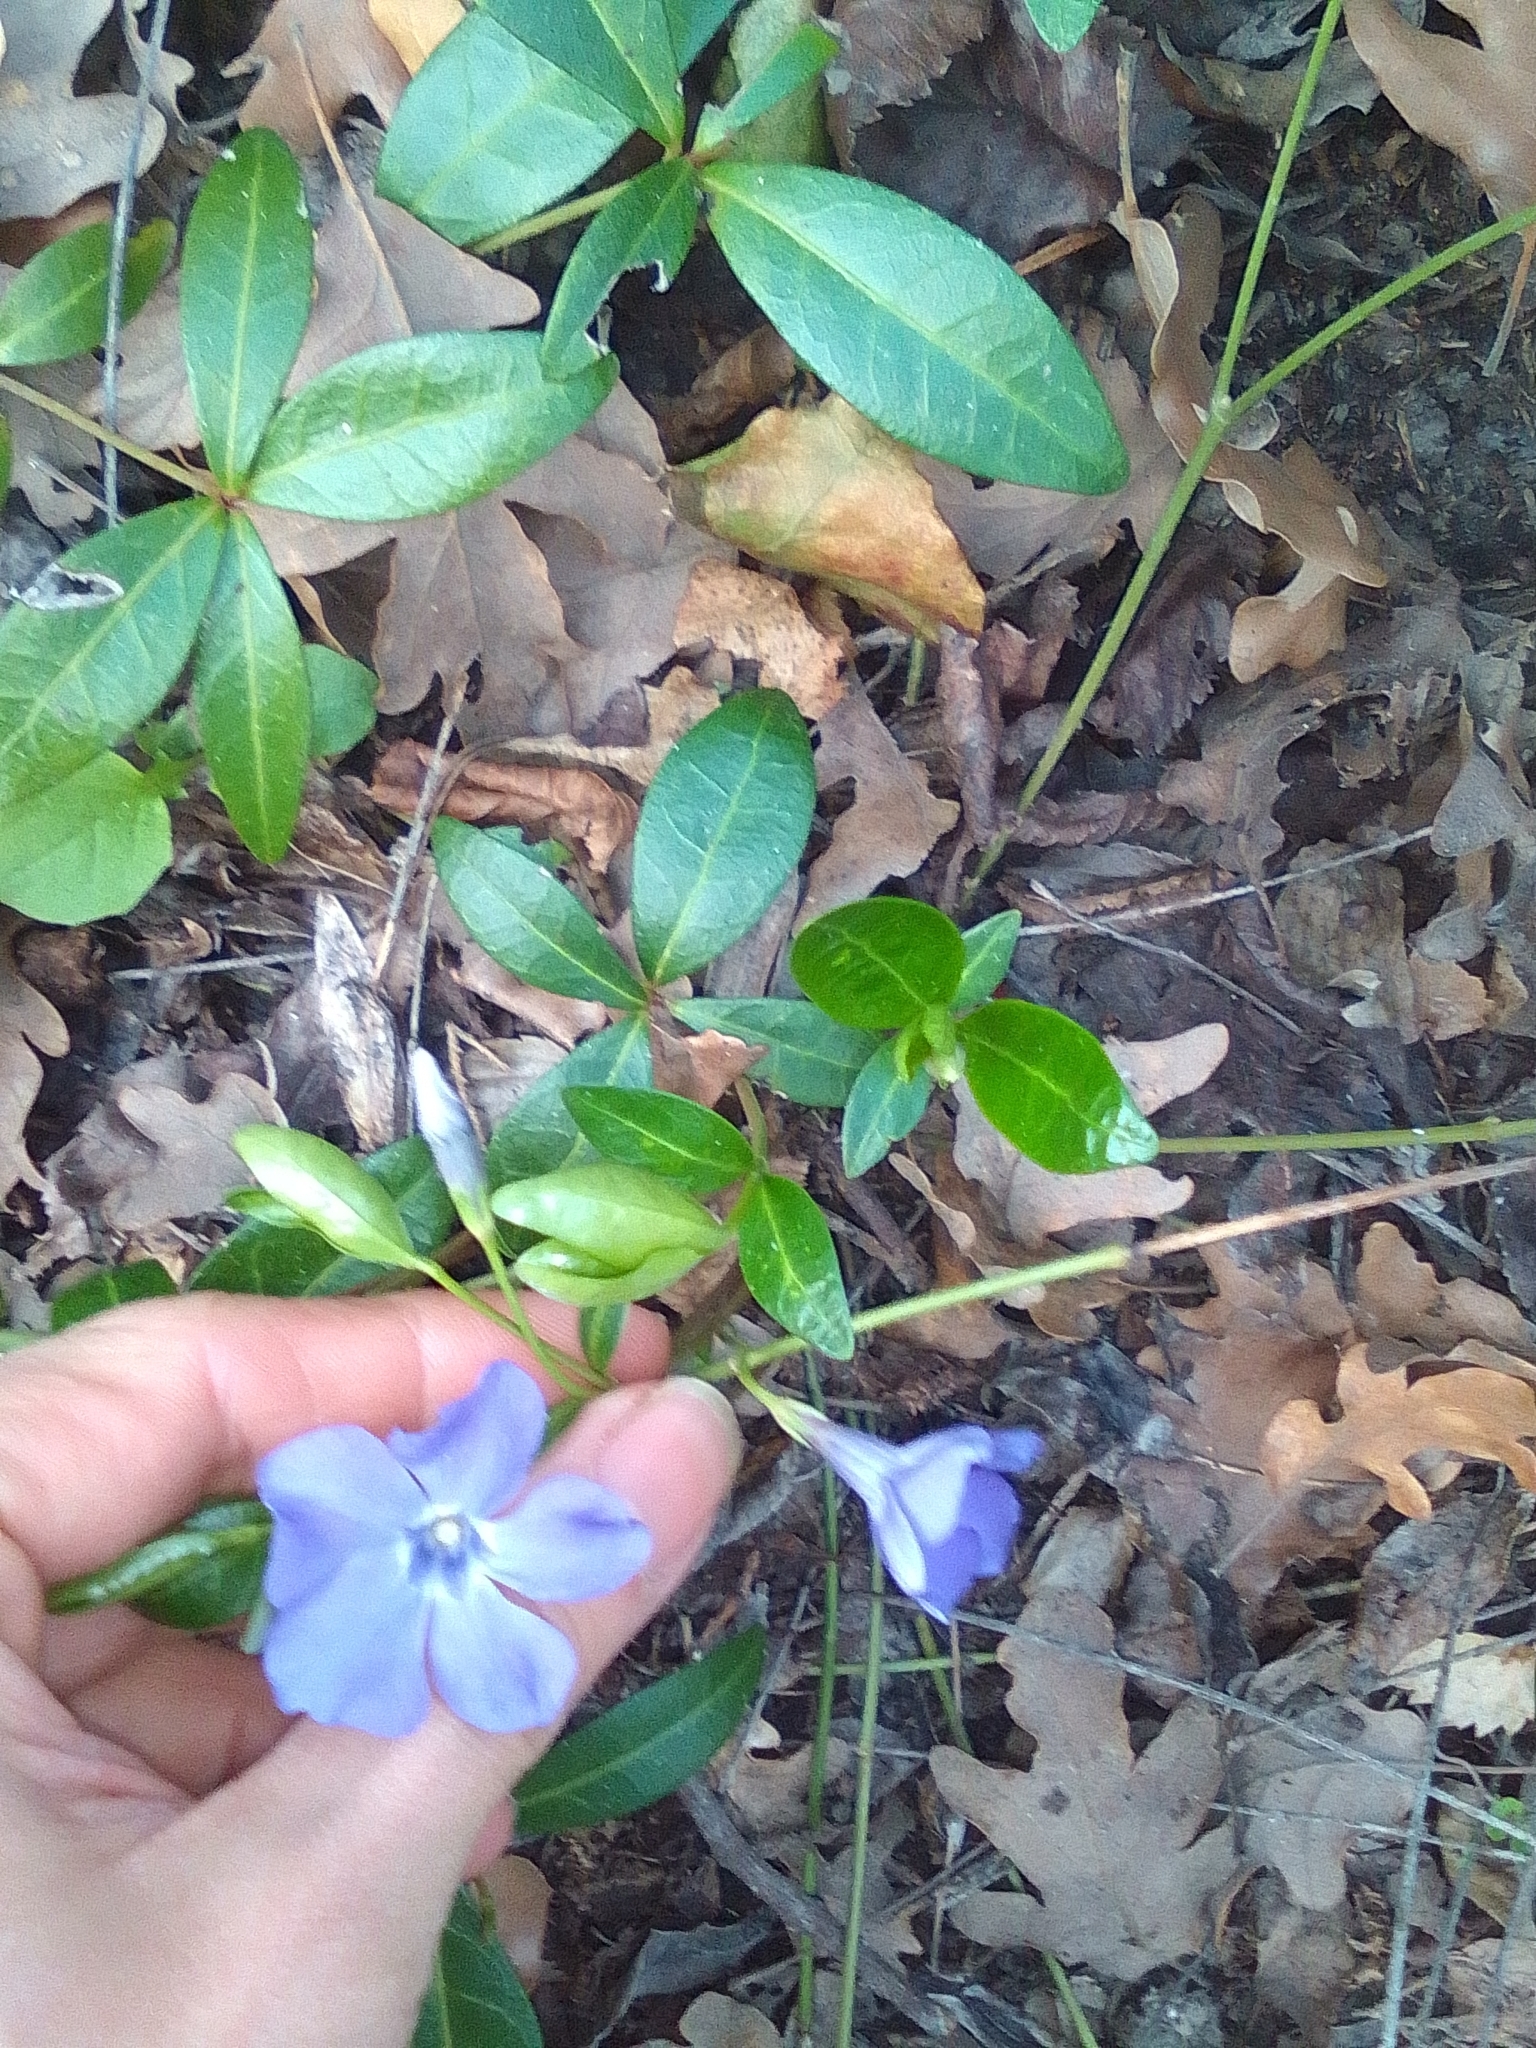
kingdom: Plantae
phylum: Tracheophyta
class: Magnoliopsida
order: Gentianales
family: Apocynaceae
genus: Vinca
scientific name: Vinca minor
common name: Lesser periwinkle
